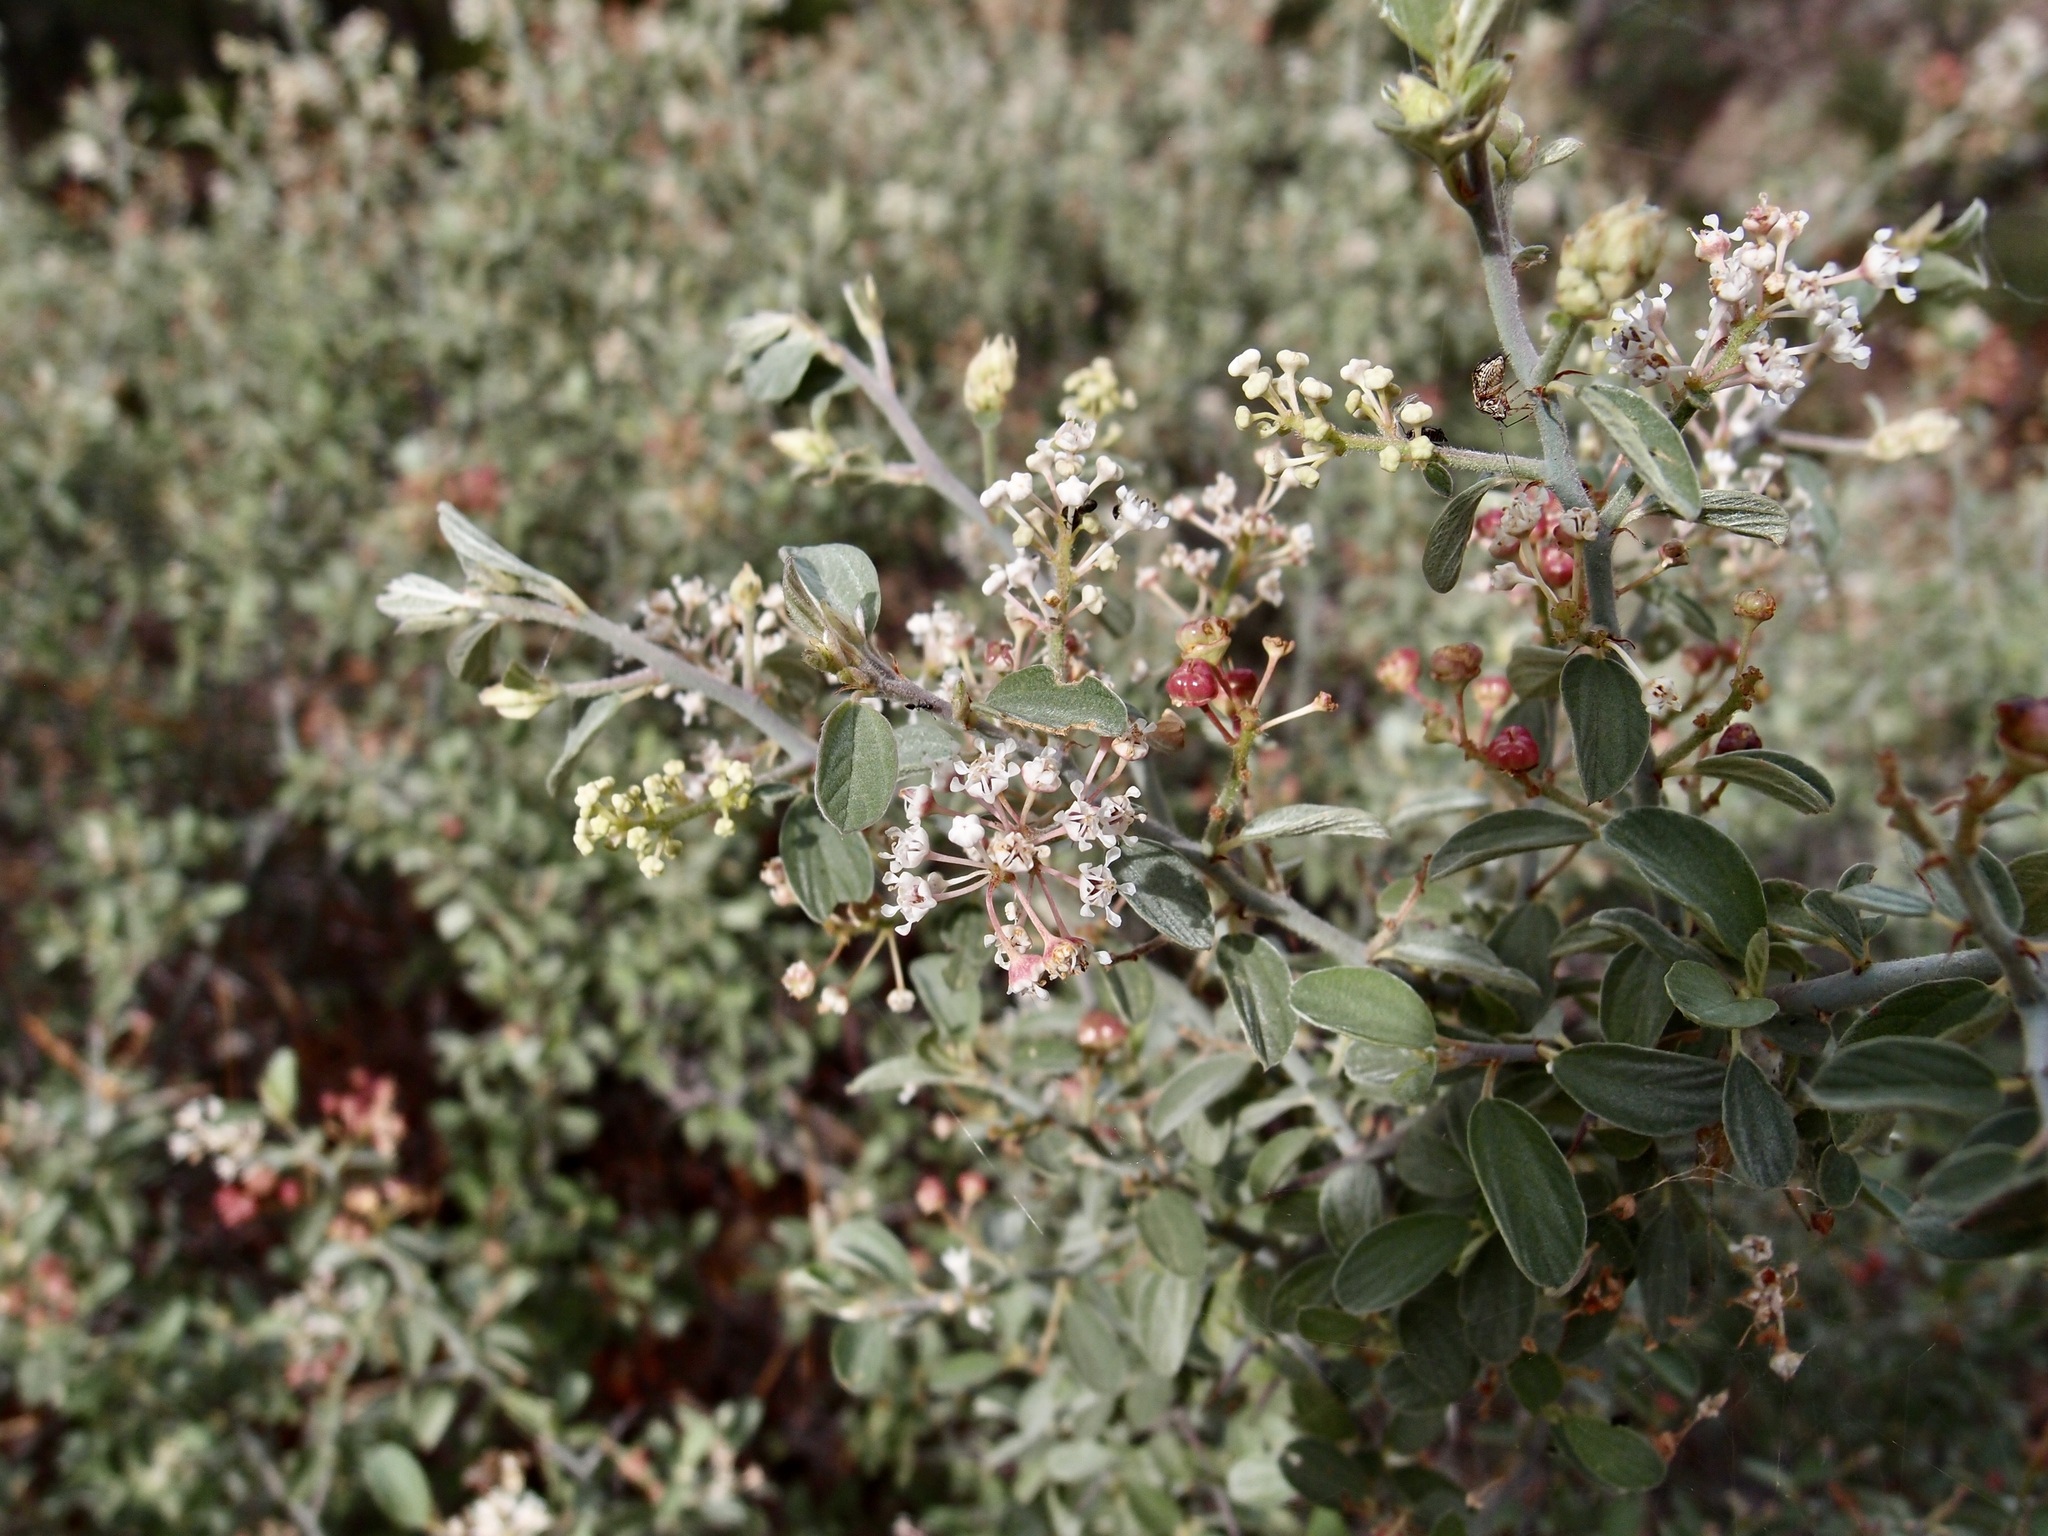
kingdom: Plantae
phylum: Tracheophyta
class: Magnoliopsida
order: Rosales
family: Rhamnaceae
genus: Ceanothus
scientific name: Ceanothus fendleri
